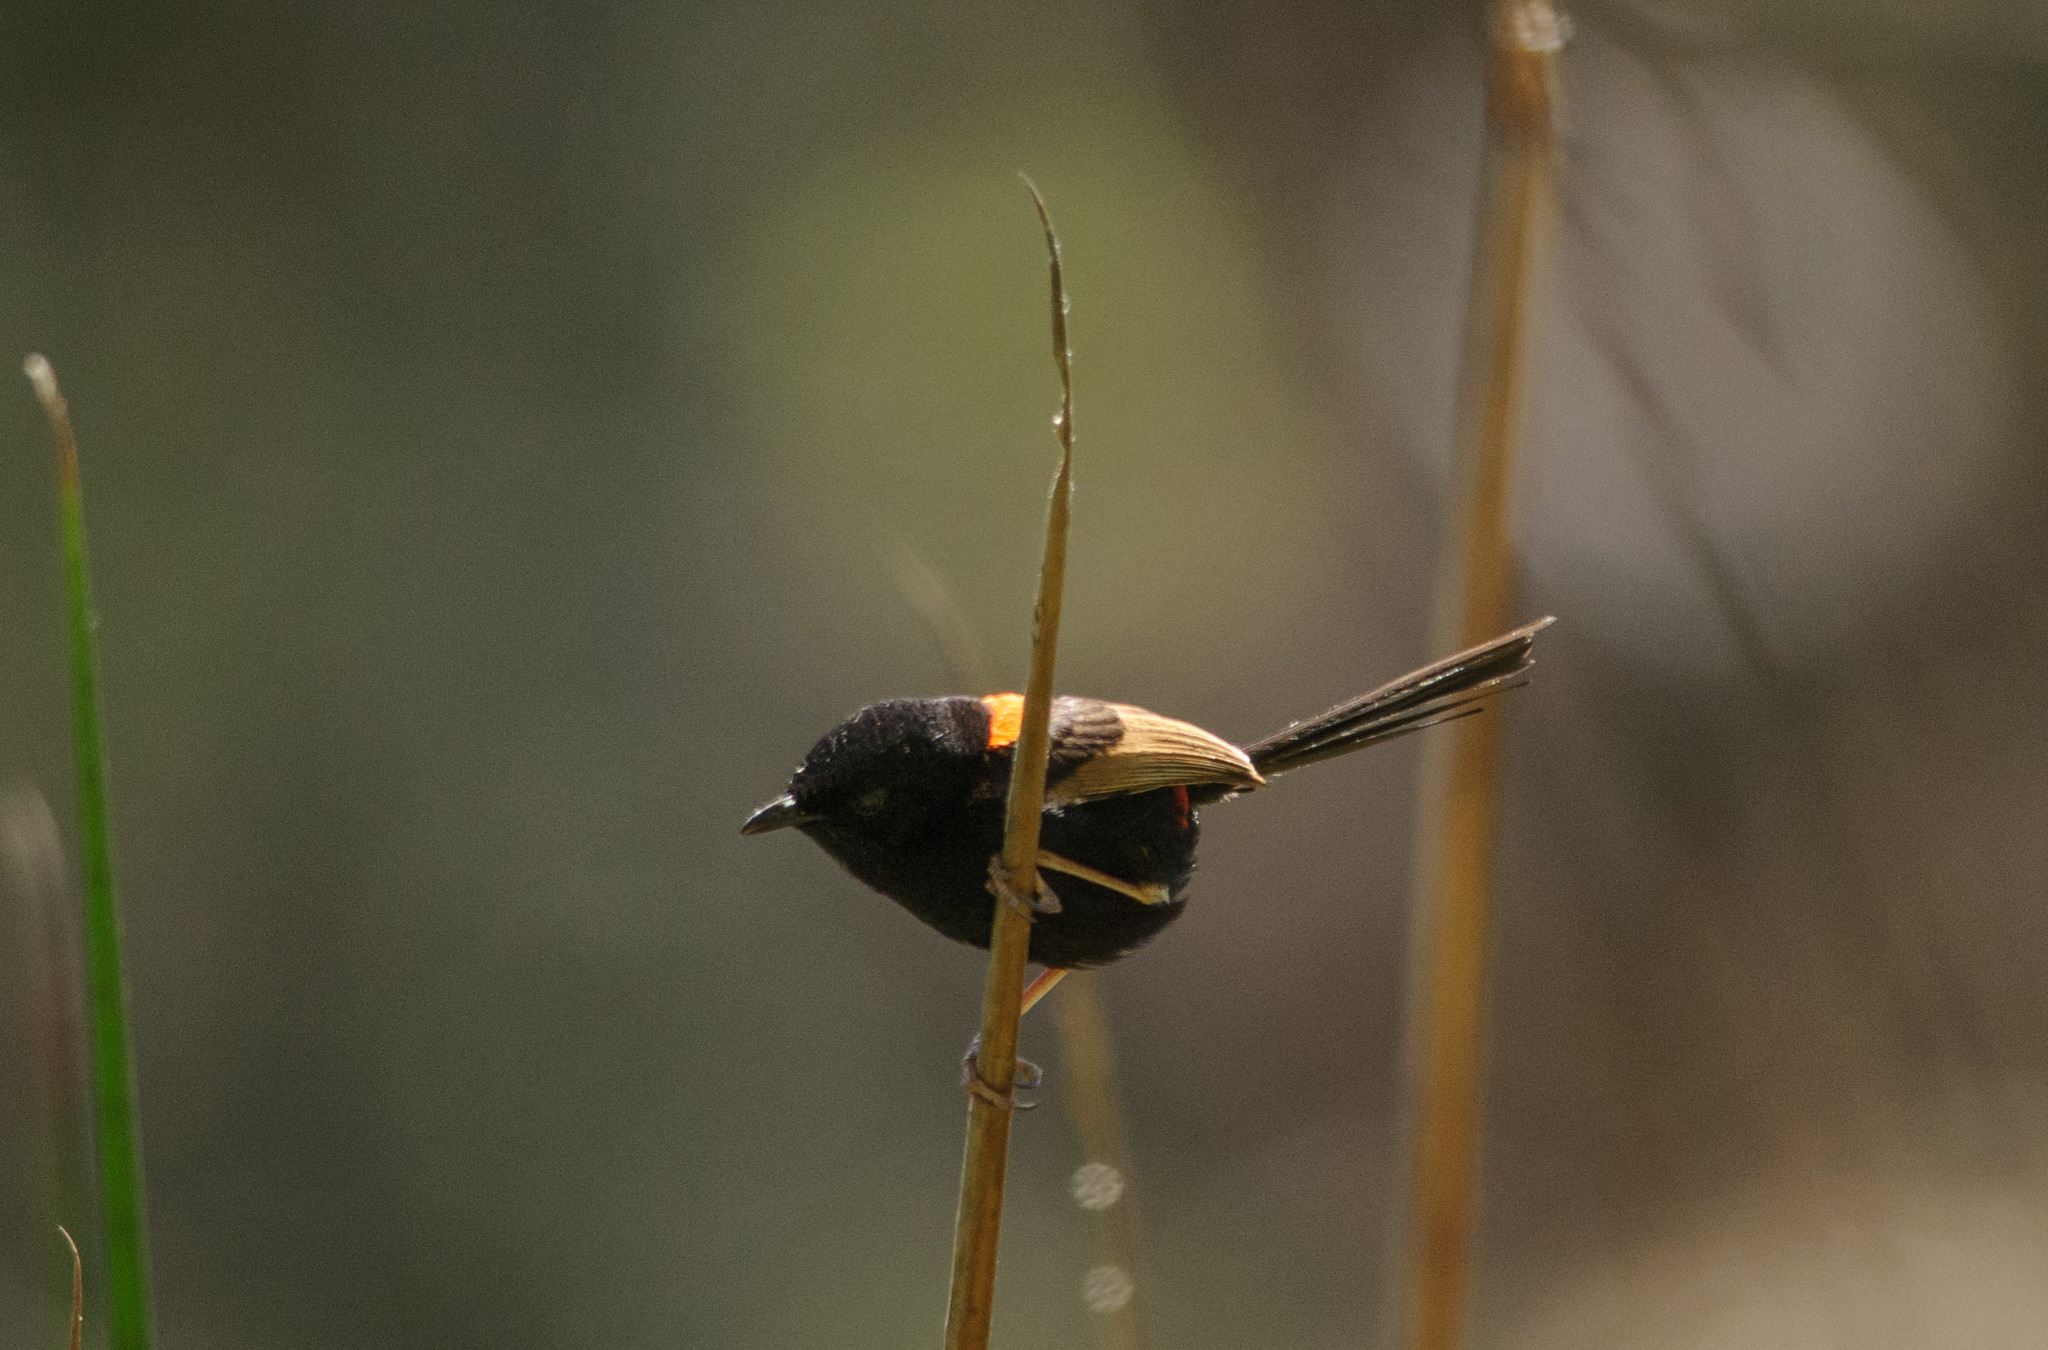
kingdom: Animalia
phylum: Chordata
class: Aves
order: Passeriformes
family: Maluridae
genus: Malurus
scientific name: Malurus melanocephalus
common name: Red-backed fairywren
